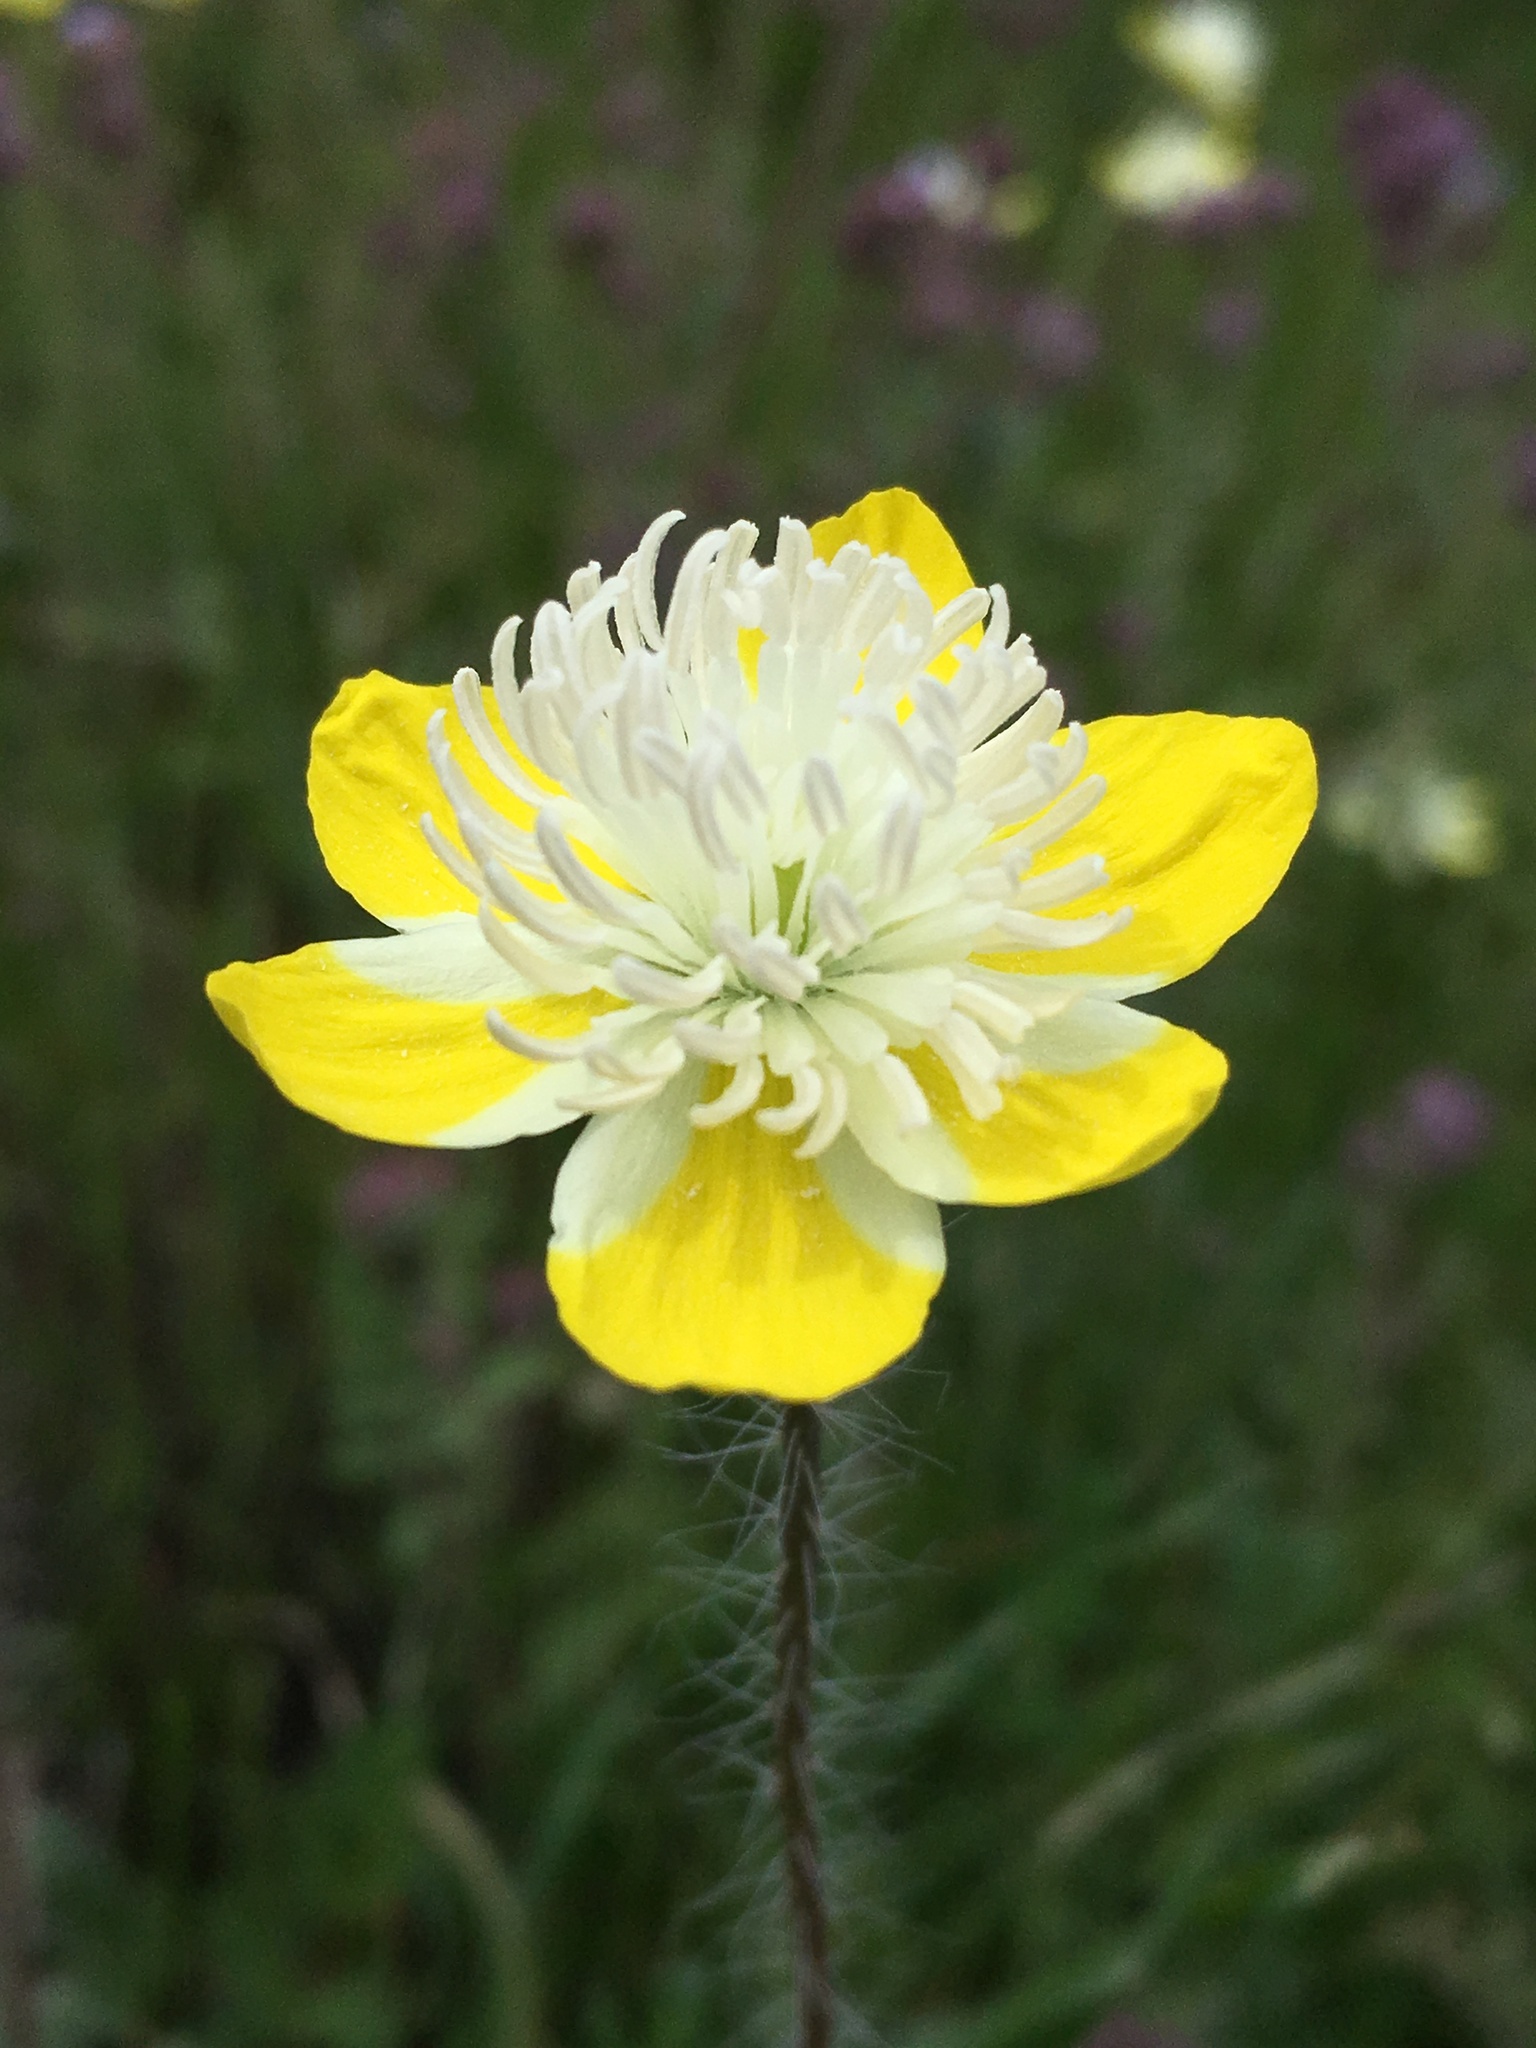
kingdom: Plantae
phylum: Tracheophyta
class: Magnoliopsida
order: Ranunculales
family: Papaveraceae
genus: Platystemon
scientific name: Platystemon californicus
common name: Cream-cups
